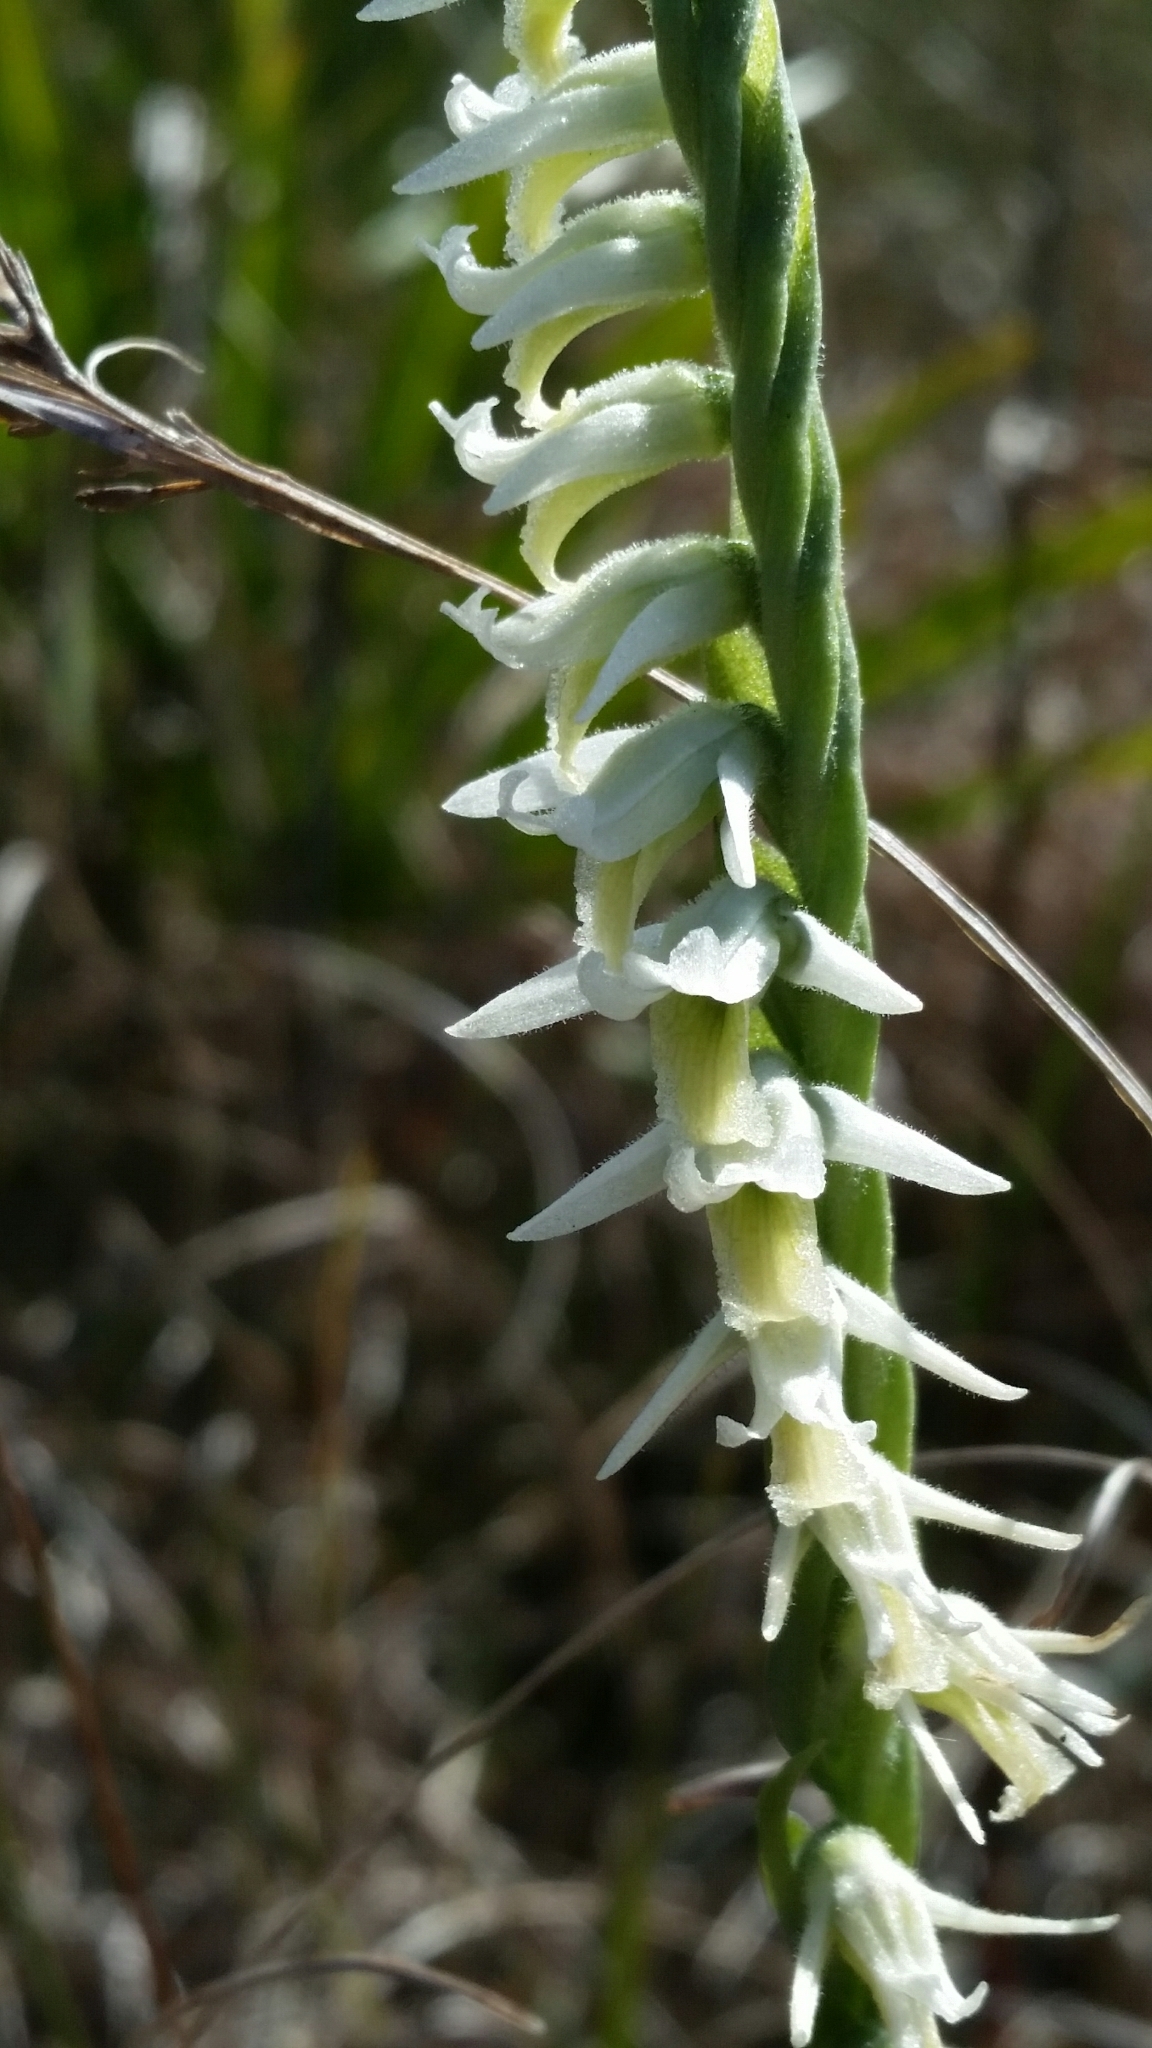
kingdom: Plantae
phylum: Tracheophyta
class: Liliopsida
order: Asparagales
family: Orchidaceae
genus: Spiranthes
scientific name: Spiranthes longilabris
